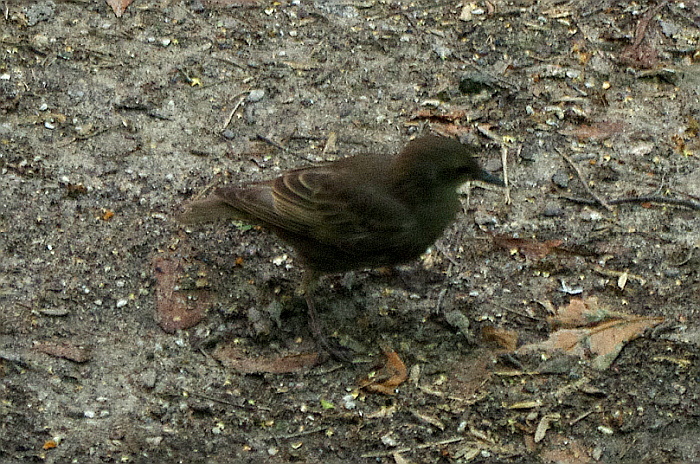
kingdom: Animalia
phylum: Chordata
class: Aves
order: Passeriformes
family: Sturnidae
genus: Sturnus
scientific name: Sturnus vulgaris
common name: Common starling
